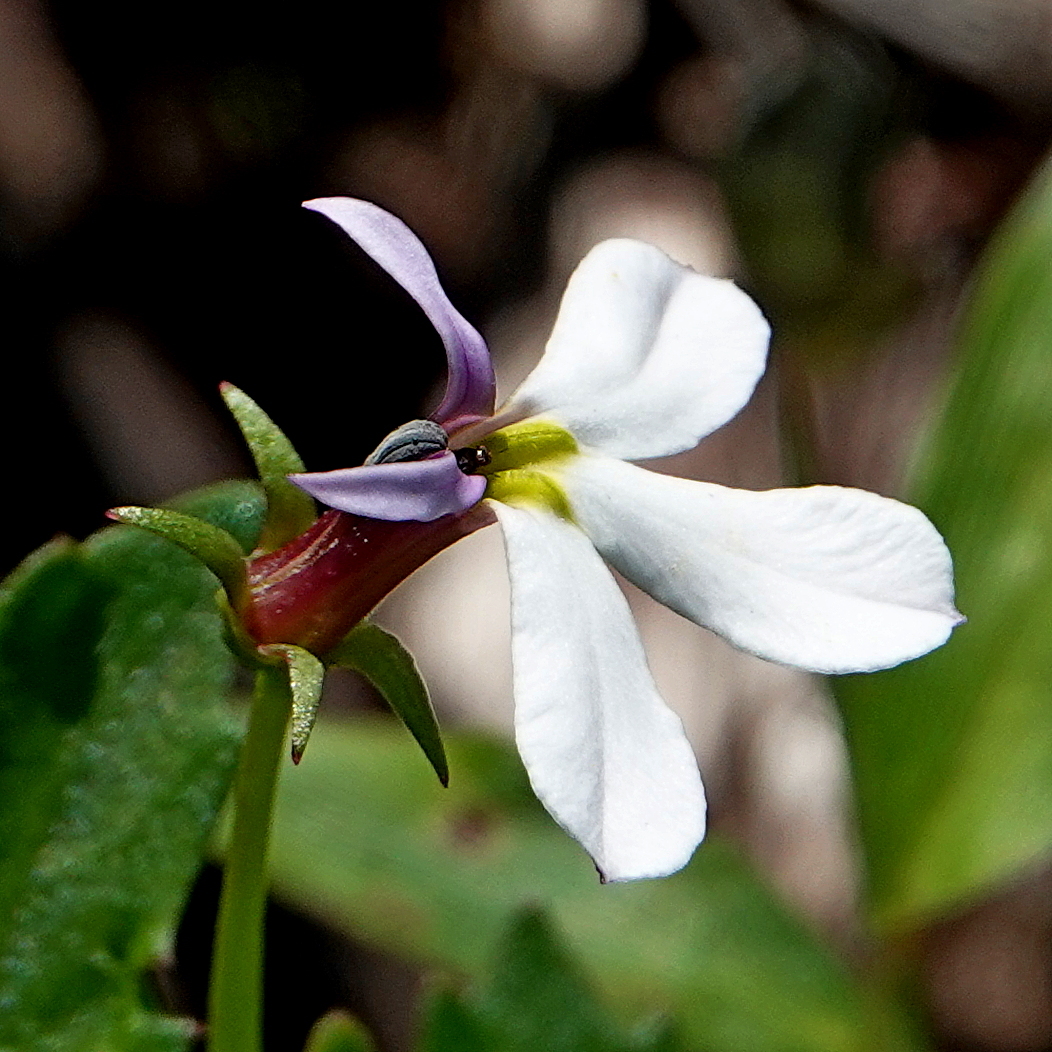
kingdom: Plantae
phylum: Tracheophyta
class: Magnoliopsida
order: Asterales
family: Campanulaceae
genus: Lobelia
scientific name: Lobelia purpurascens
